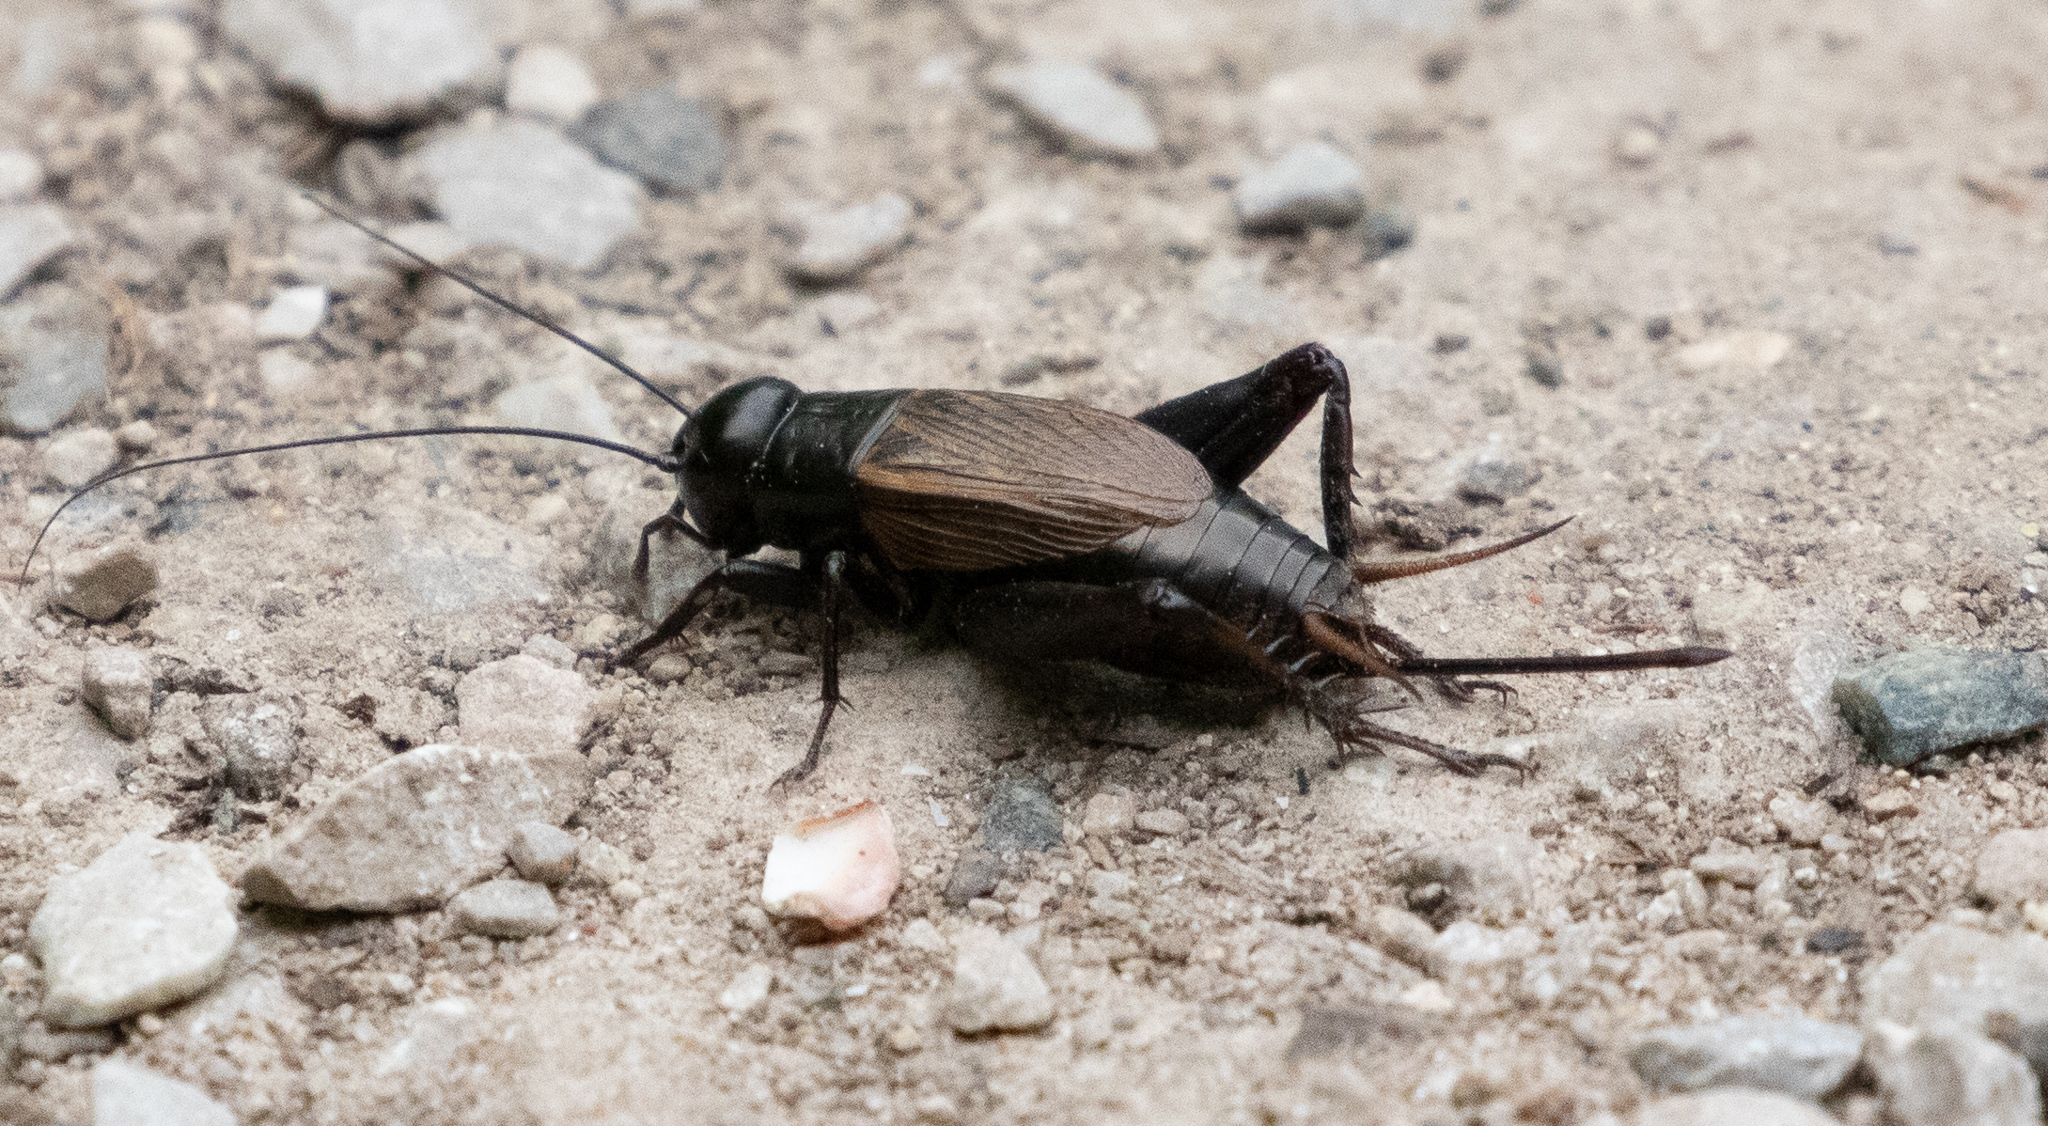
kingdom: Animalia
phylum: Arthropoda
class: Insecta
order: Orthoptera
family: Gryllidae
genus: Gryllus
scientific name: Gryllus veletis
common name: Spring field cricket
